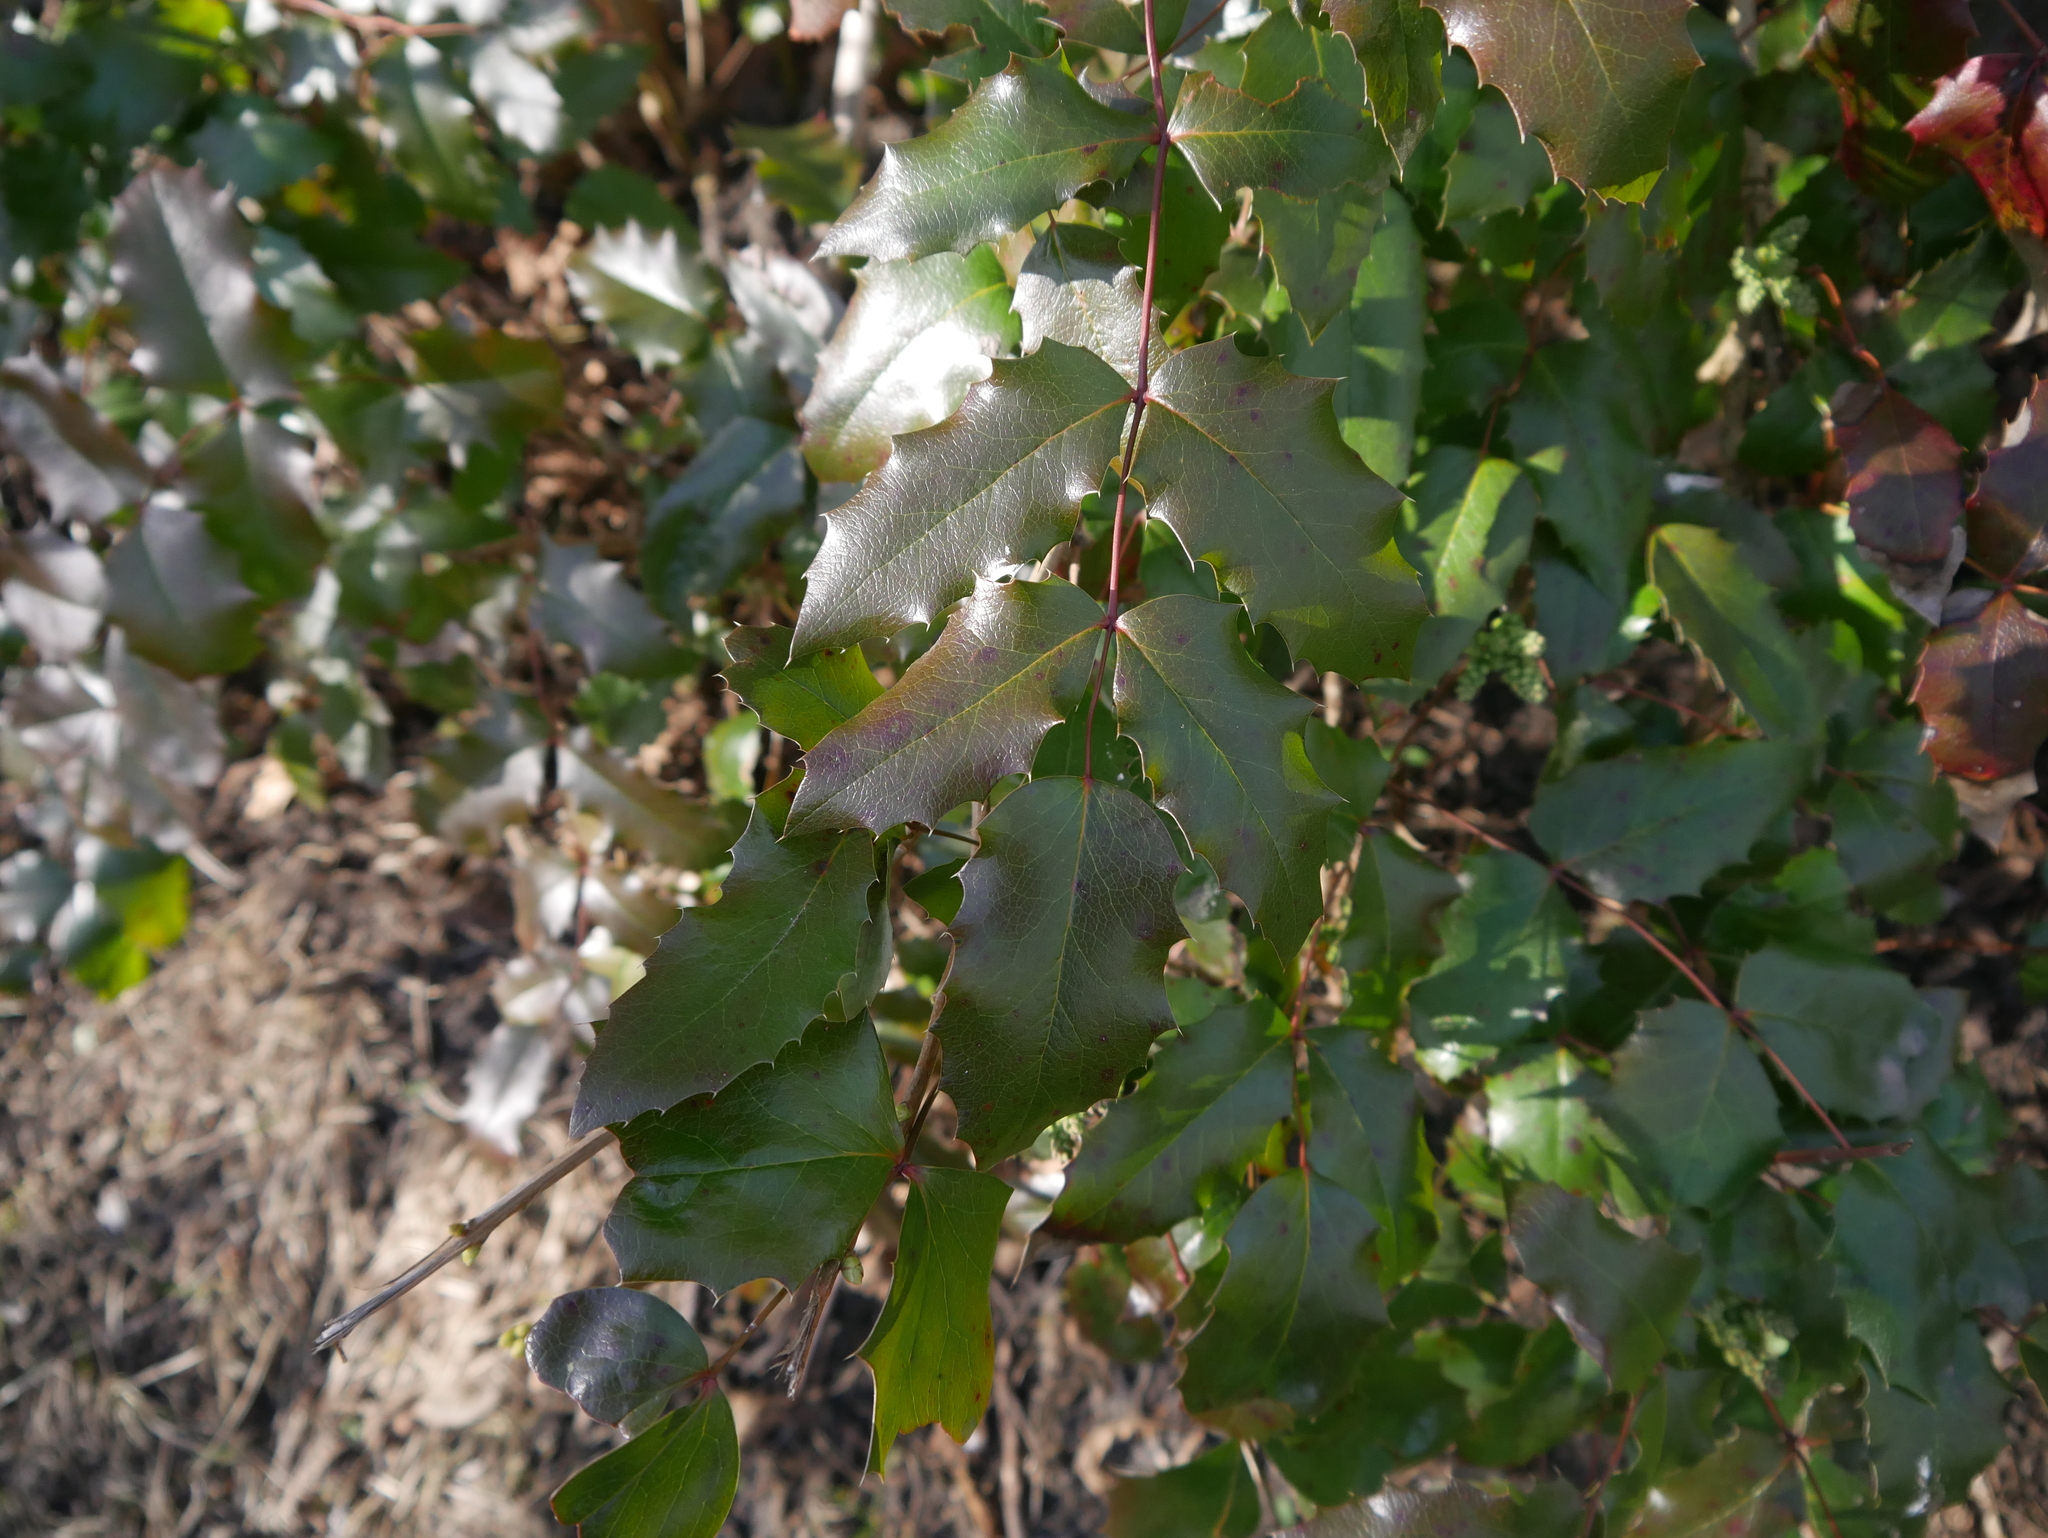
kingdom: Plantae
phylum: Tracheophyta
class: Magnoliopsida
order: Ranunculales
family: Berberidaceae
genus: Mahonia
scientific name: Mahonia aquifolium
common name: Oregon-grape
